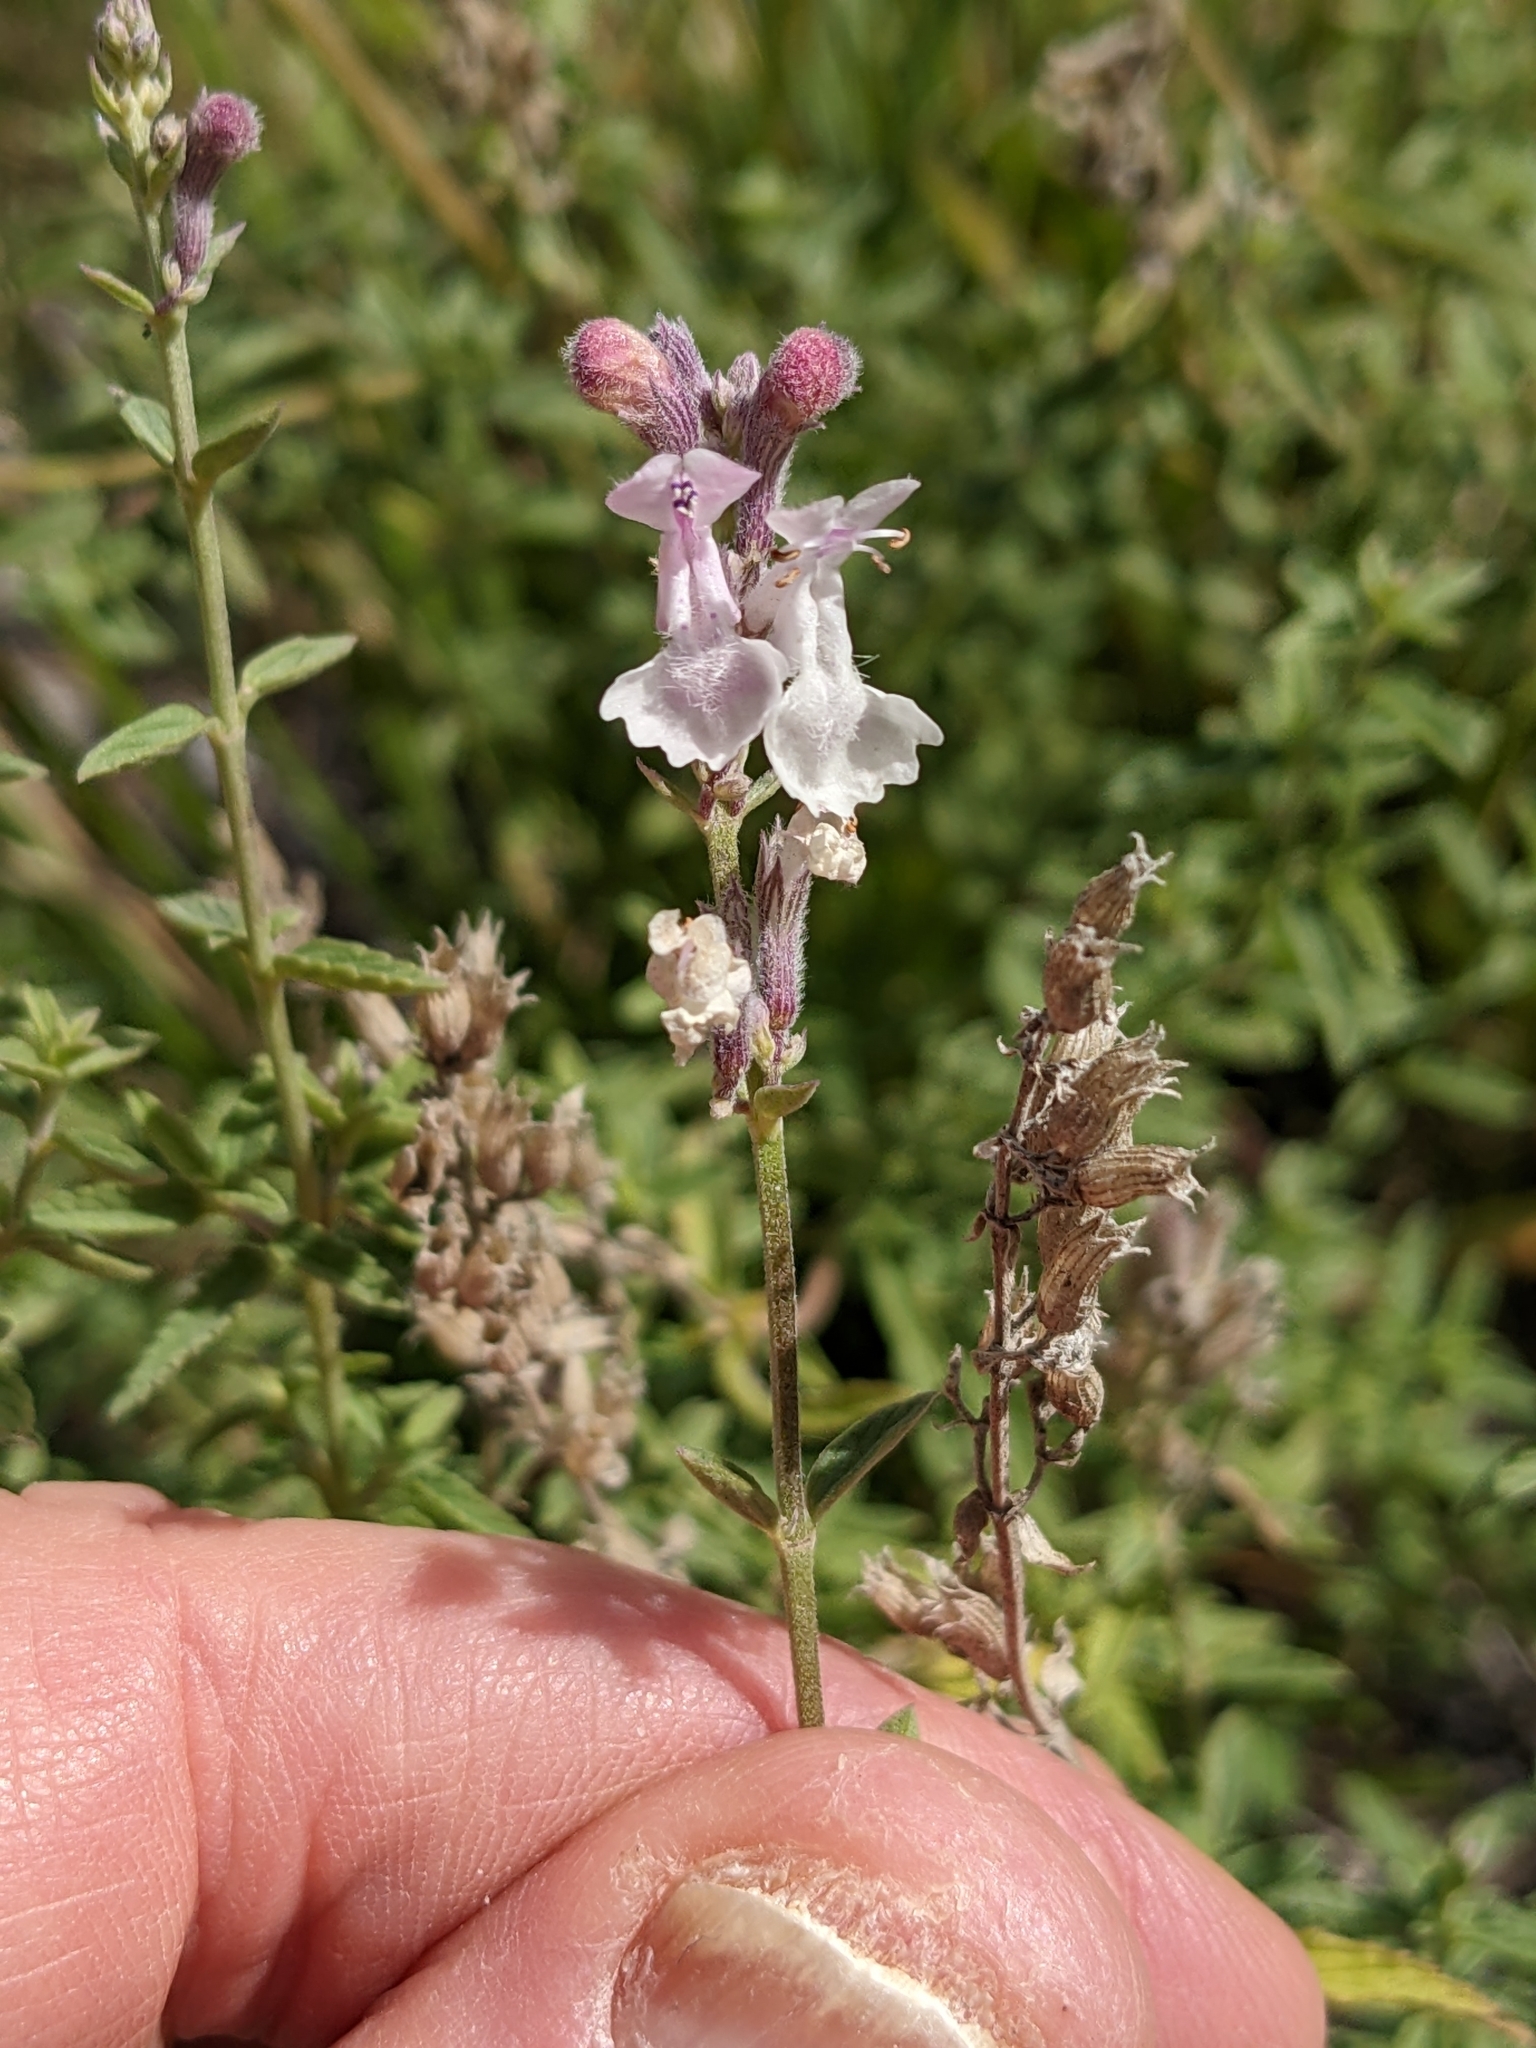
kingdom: Plantae
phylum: Tracheophyta
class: Magnoliopsida
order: Lamiales
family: Lamiaceae
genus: Nepeta
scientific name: Nepeta nepetella
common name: Lesser catmint
